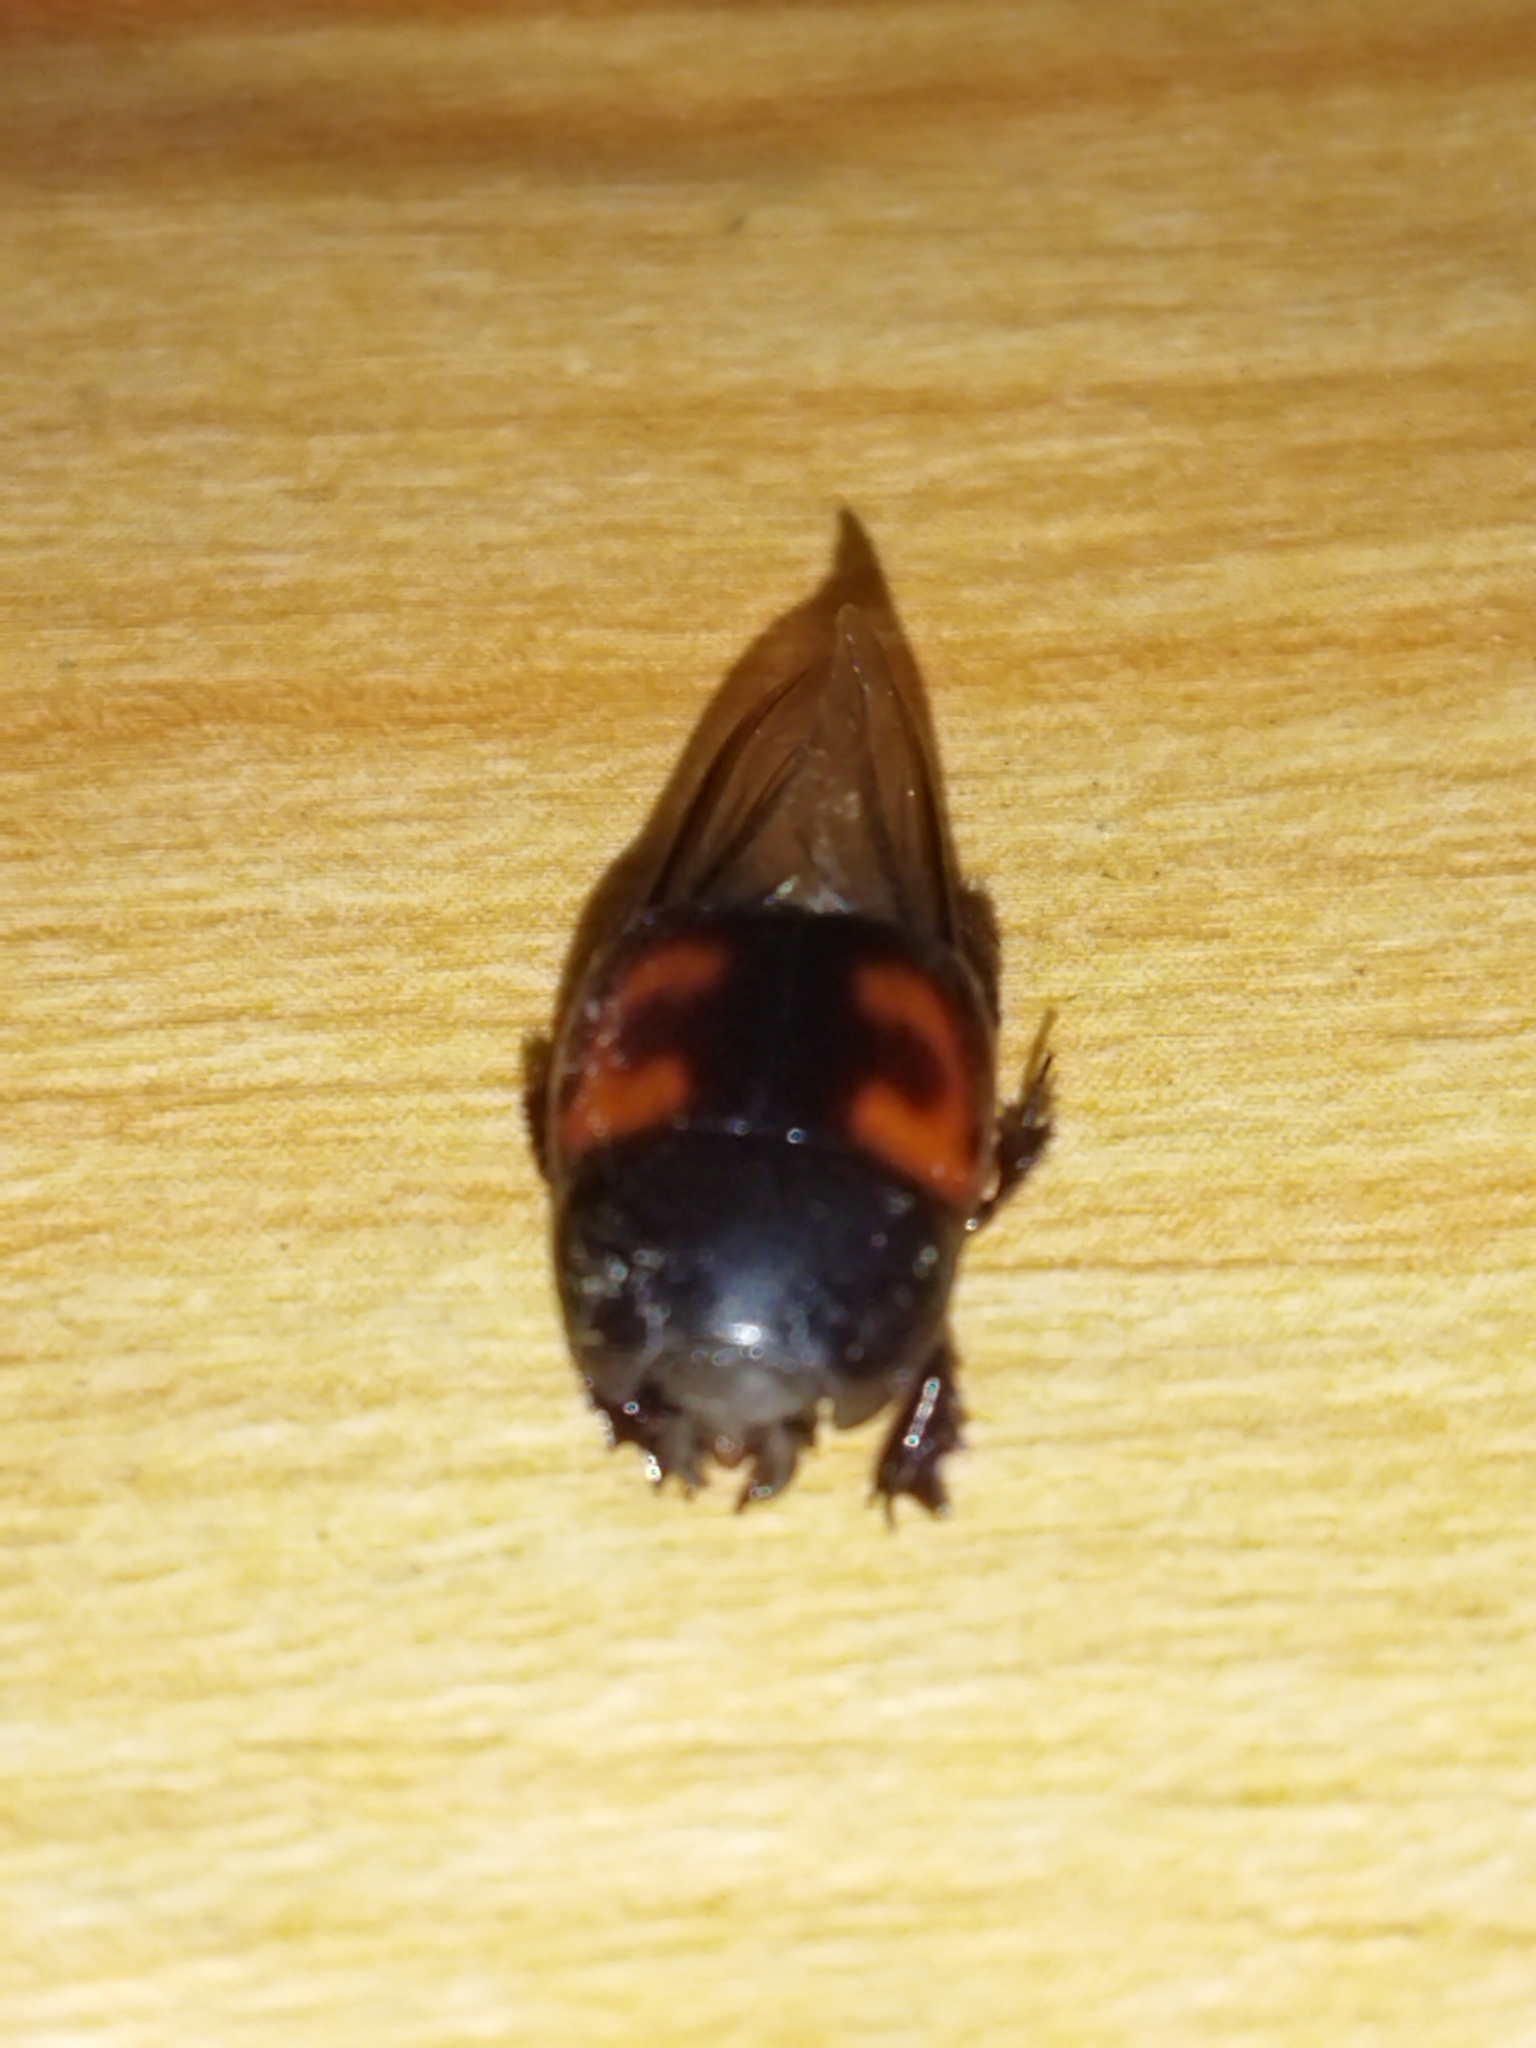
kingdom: Animalia
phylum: Arthropoda
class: Insecta
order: Coleoptera
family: Histeridae
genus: Hister
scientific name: Hister quadrimaculatus
